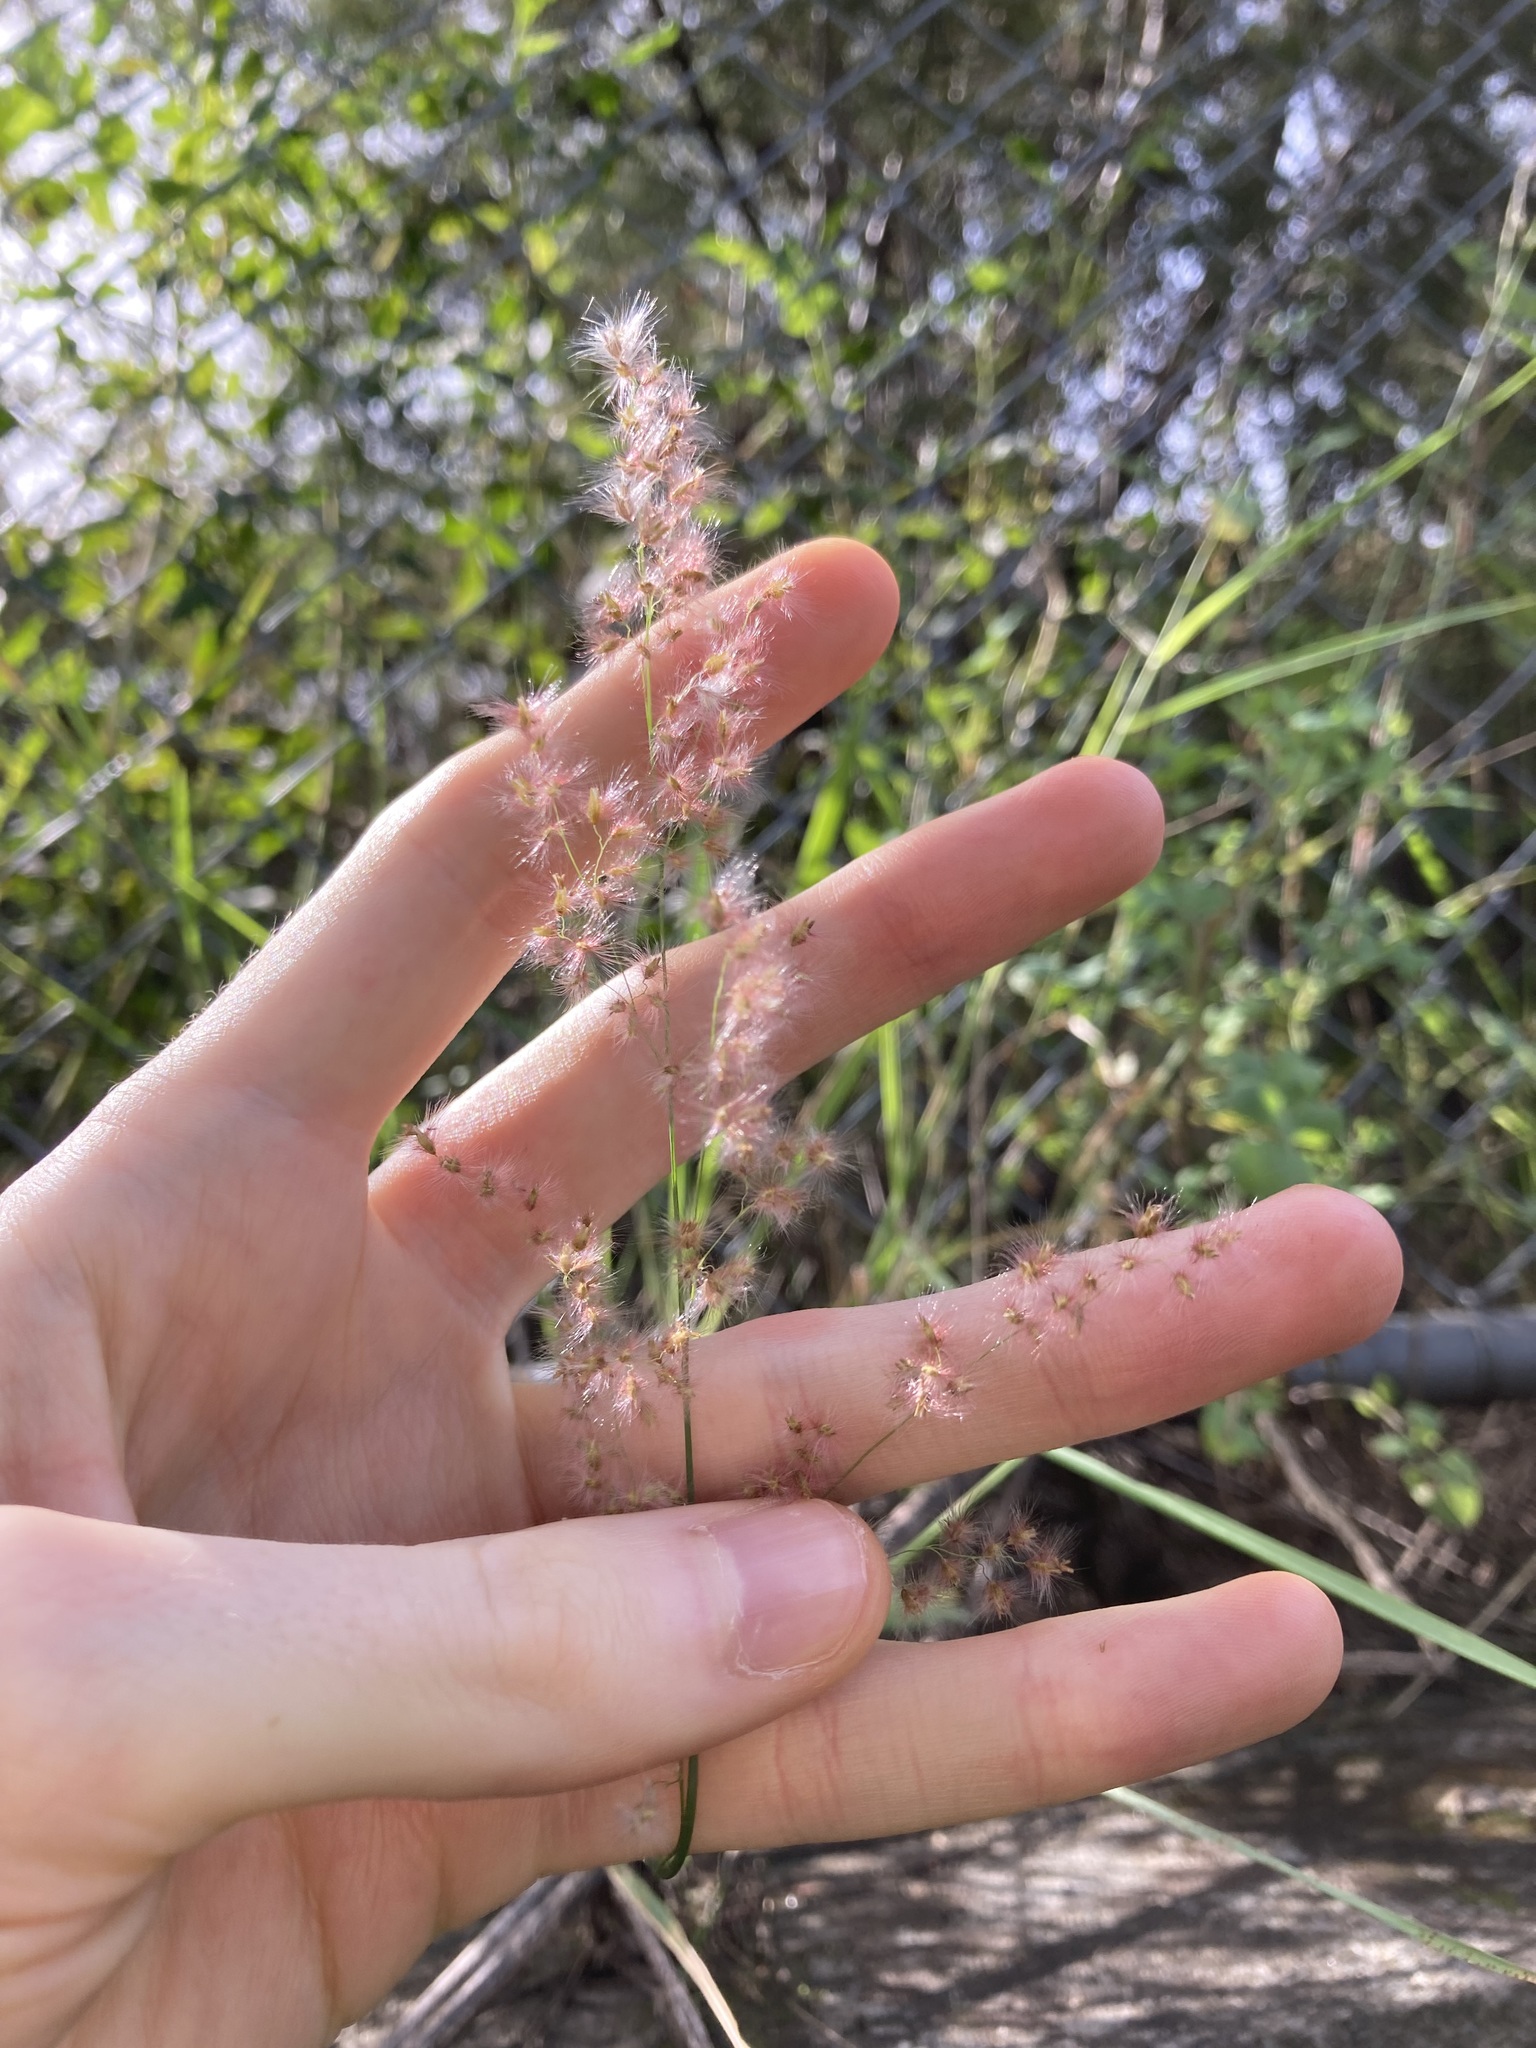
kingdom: Plantae
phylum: Tracheophyta
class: Liliopsida
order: Poales
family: Poaceae
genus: Melinis
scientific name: Melinis repens
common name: Rose natal grass
